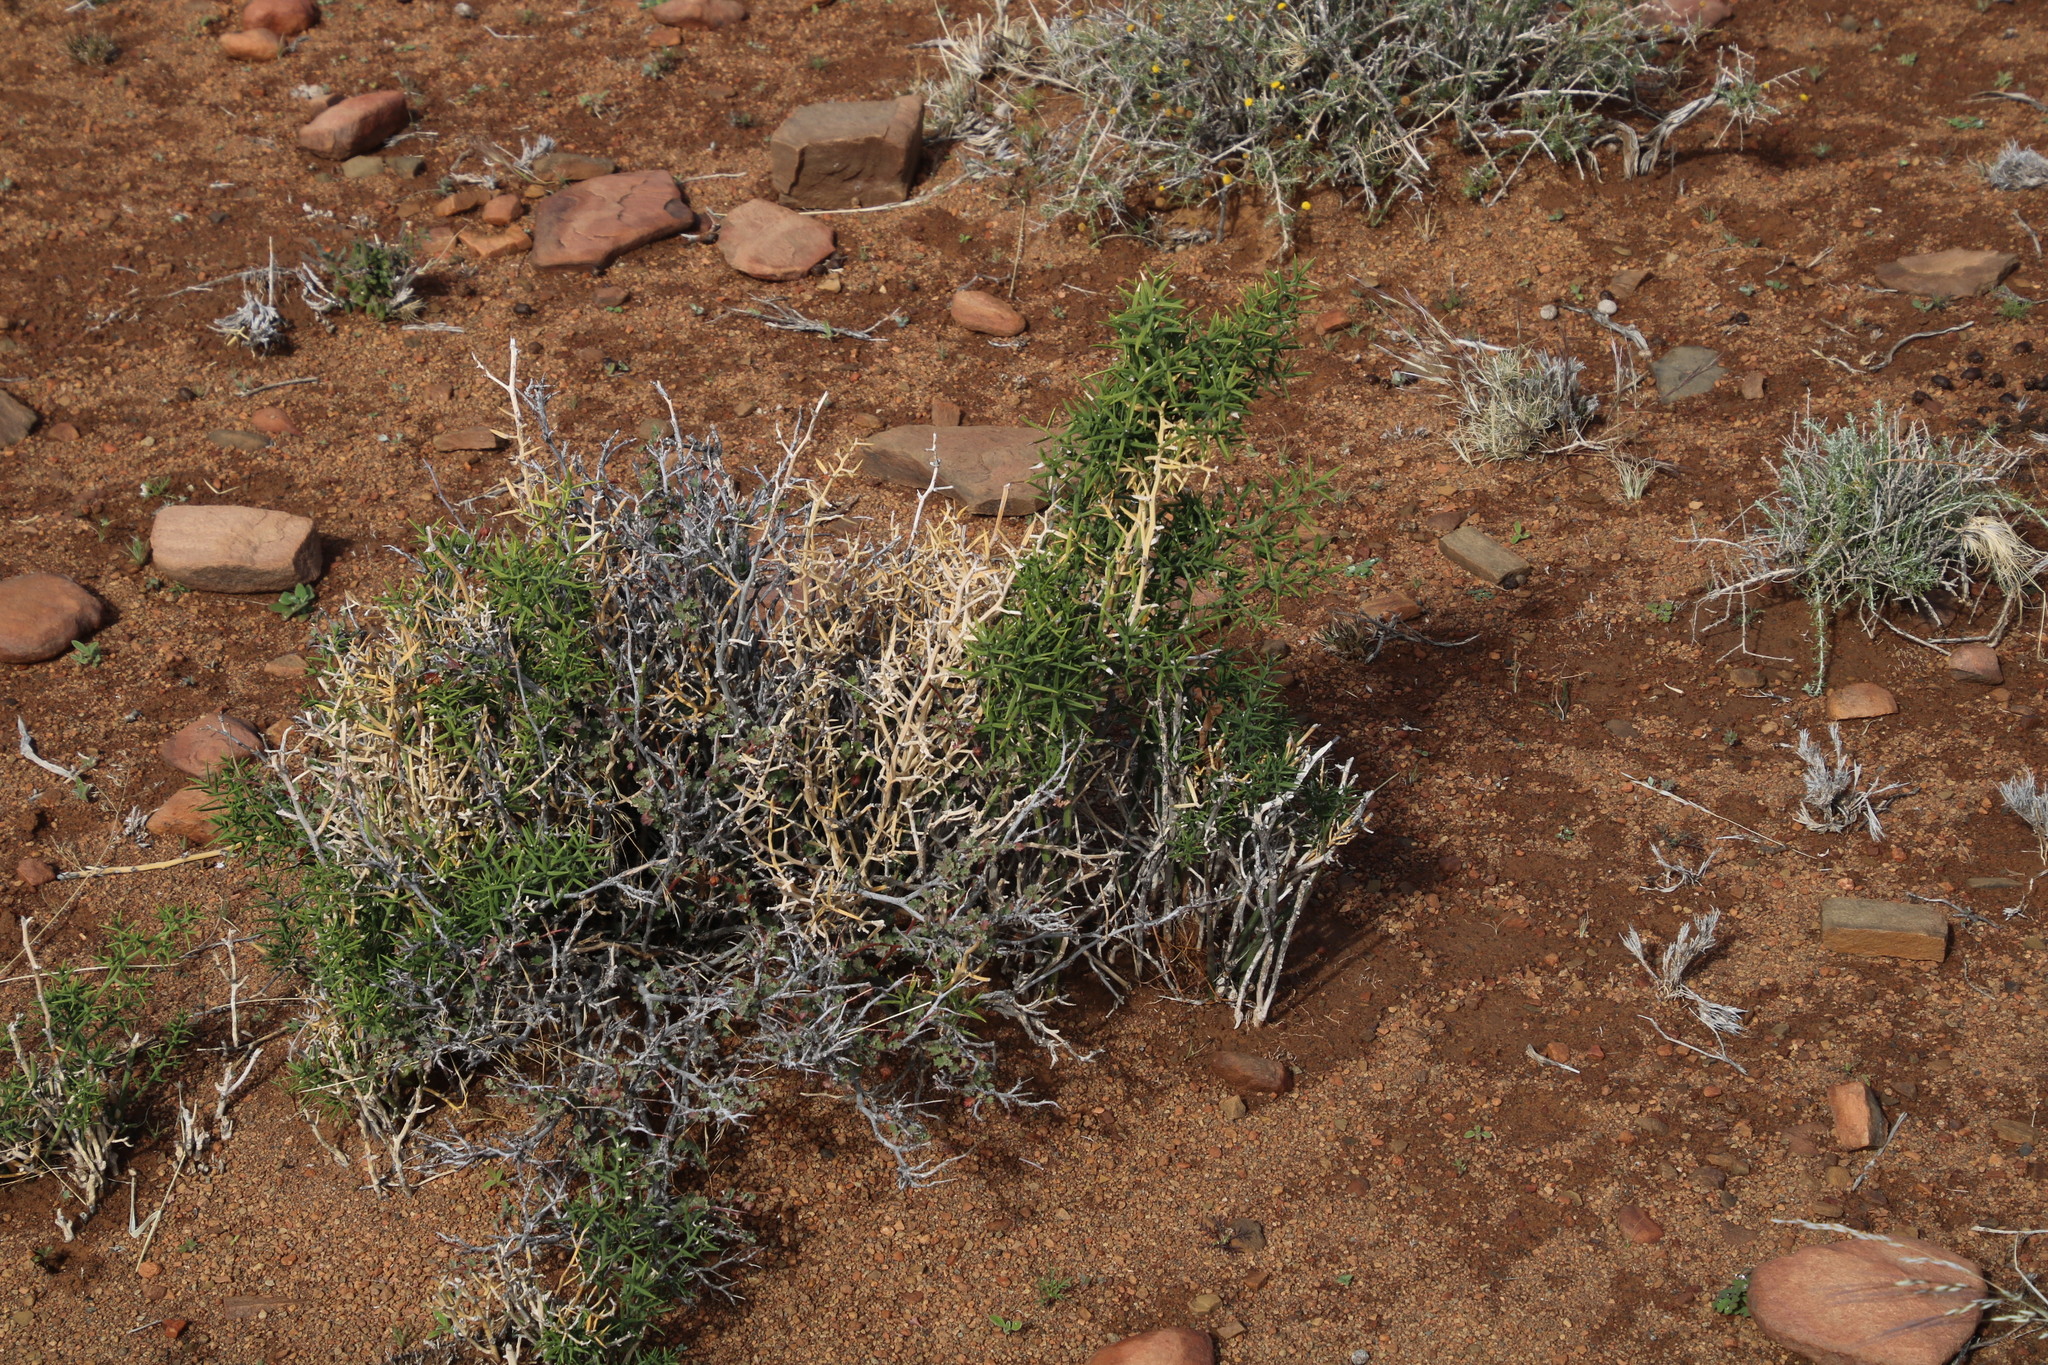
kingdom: Plantae
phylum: Tracheophyta
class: Liliopsida
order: Asparagales
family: Asparagaceae
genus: Asparagus
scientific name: Asparagus striatus
